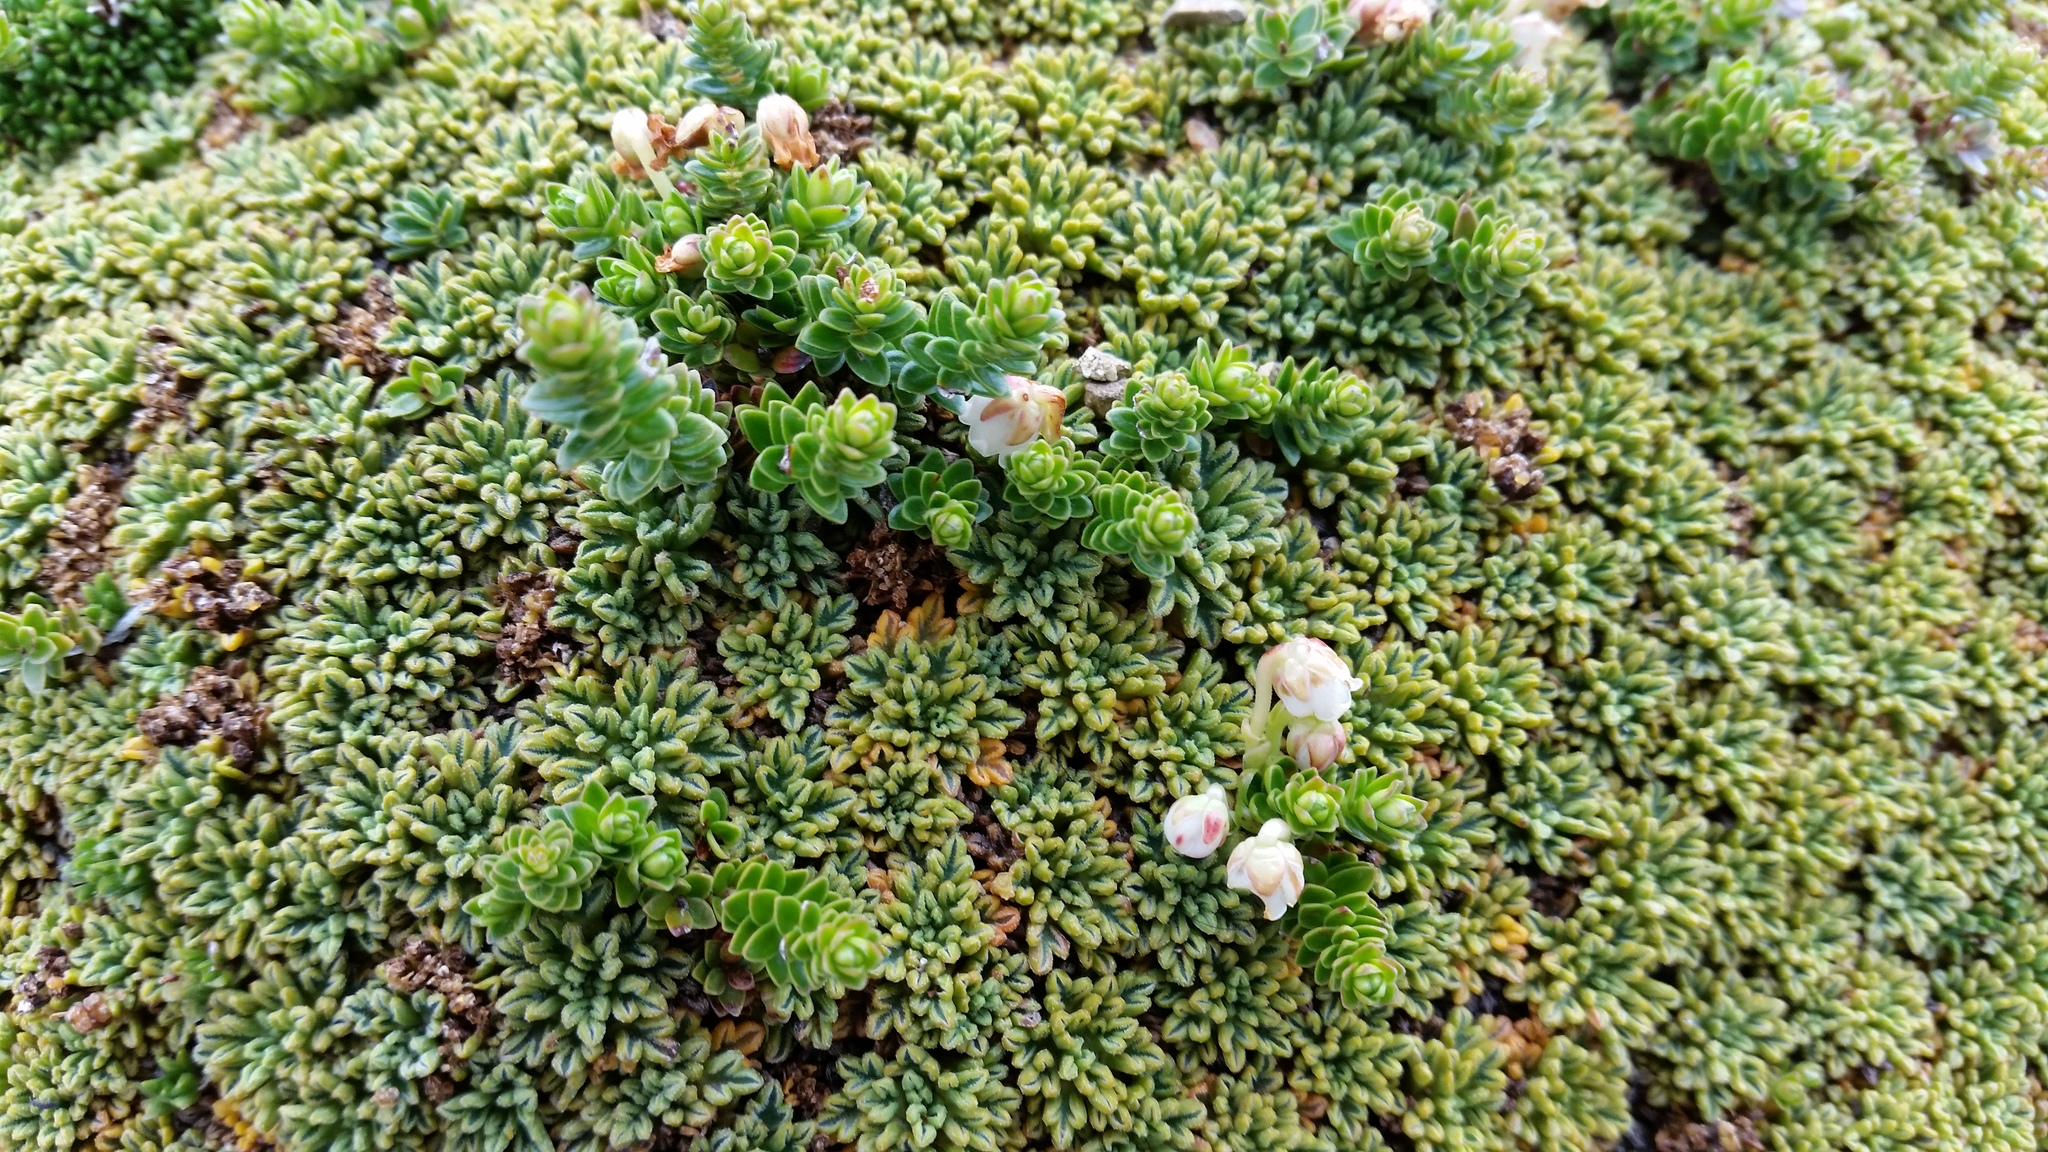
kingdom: Plantae
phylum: Tracheophyta
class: Magnoliopsida
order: Ericales
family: Ericaceae
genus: Gaultheria
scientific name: Gaultheria pumila
